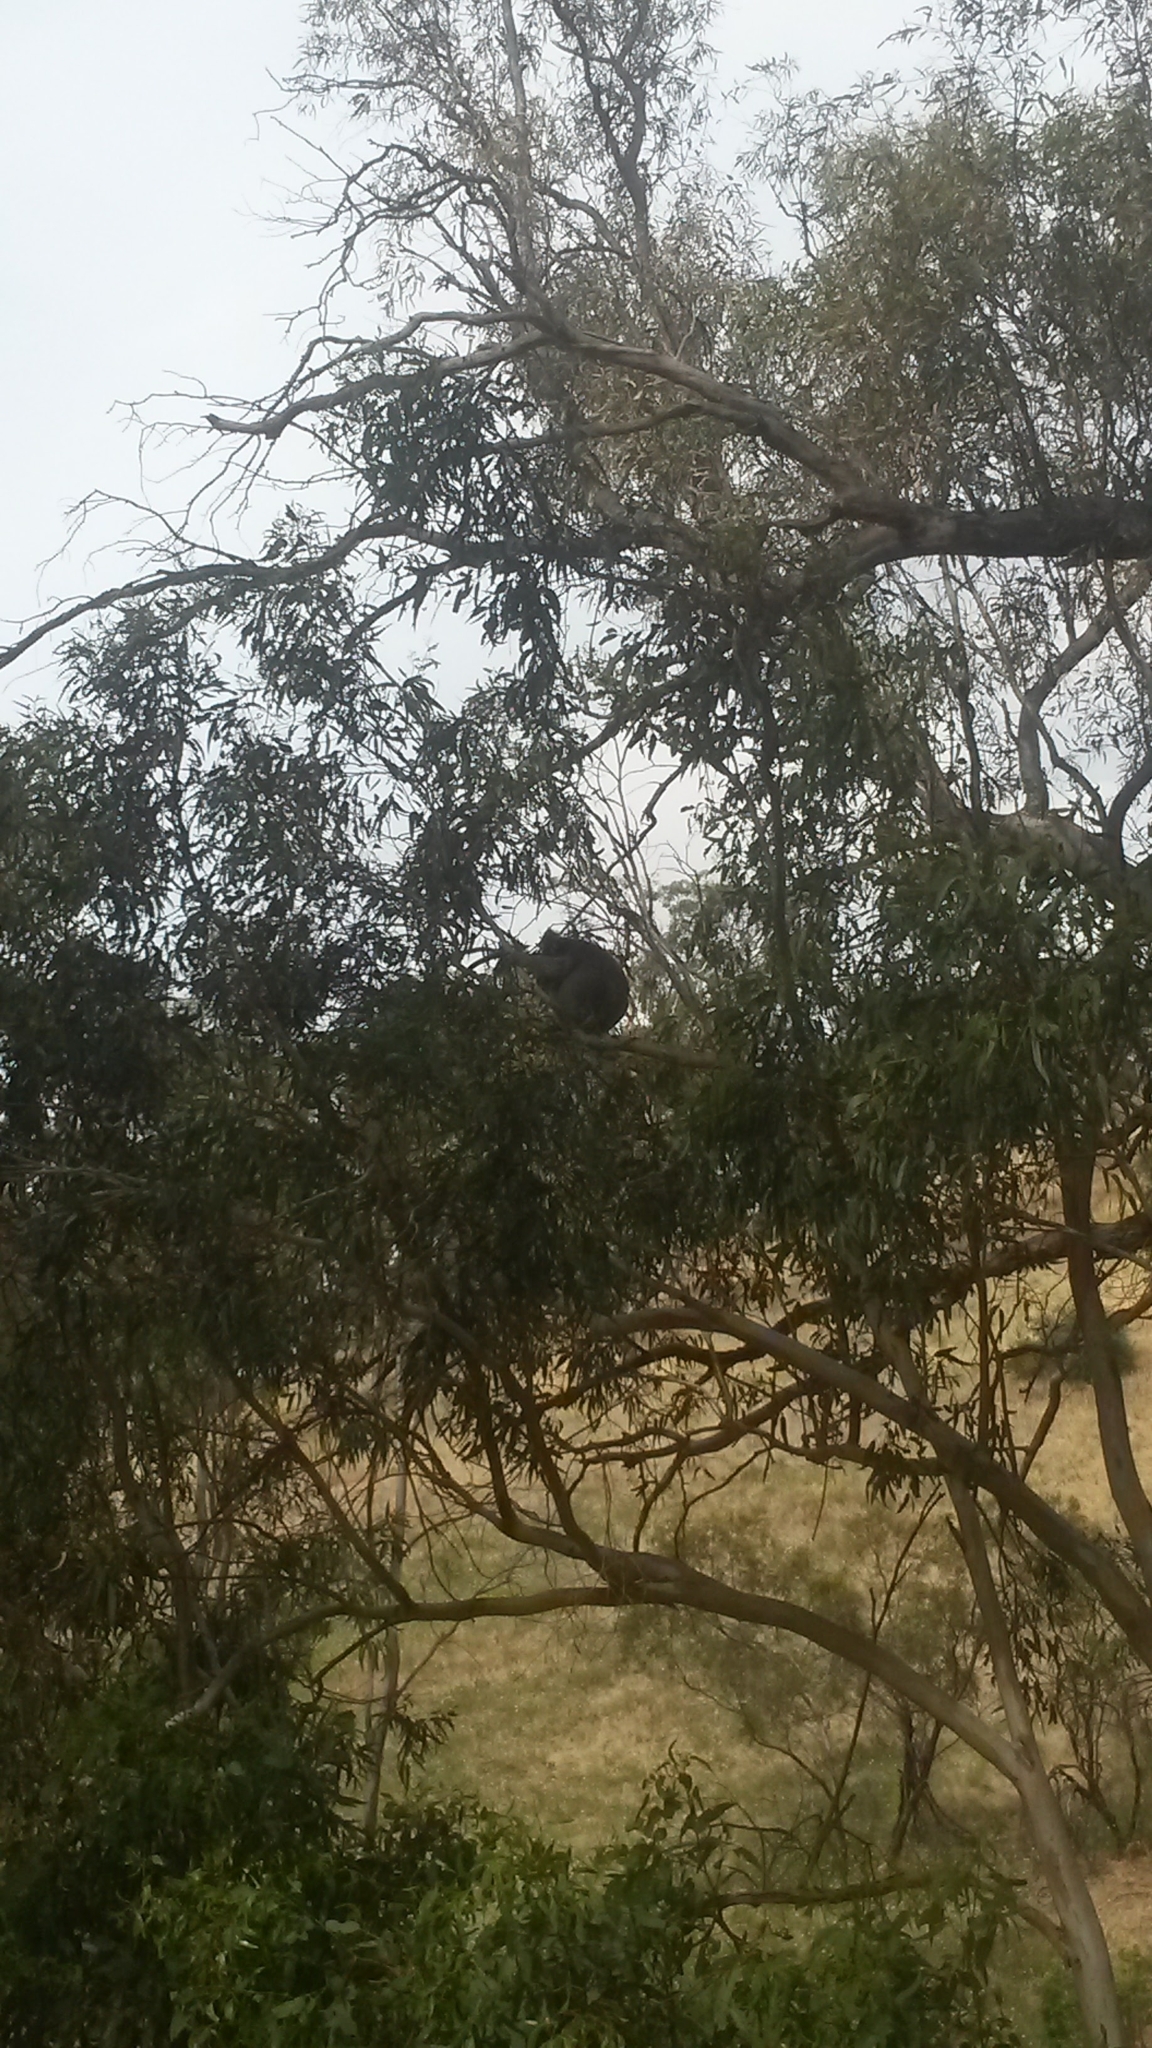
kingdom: Animalia
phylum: Chordata
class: Mammalia
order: Diprotodontia
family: Phascolarctidae
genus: Phascolarctos
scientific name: Phascolarctos cinereus
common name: Koala
